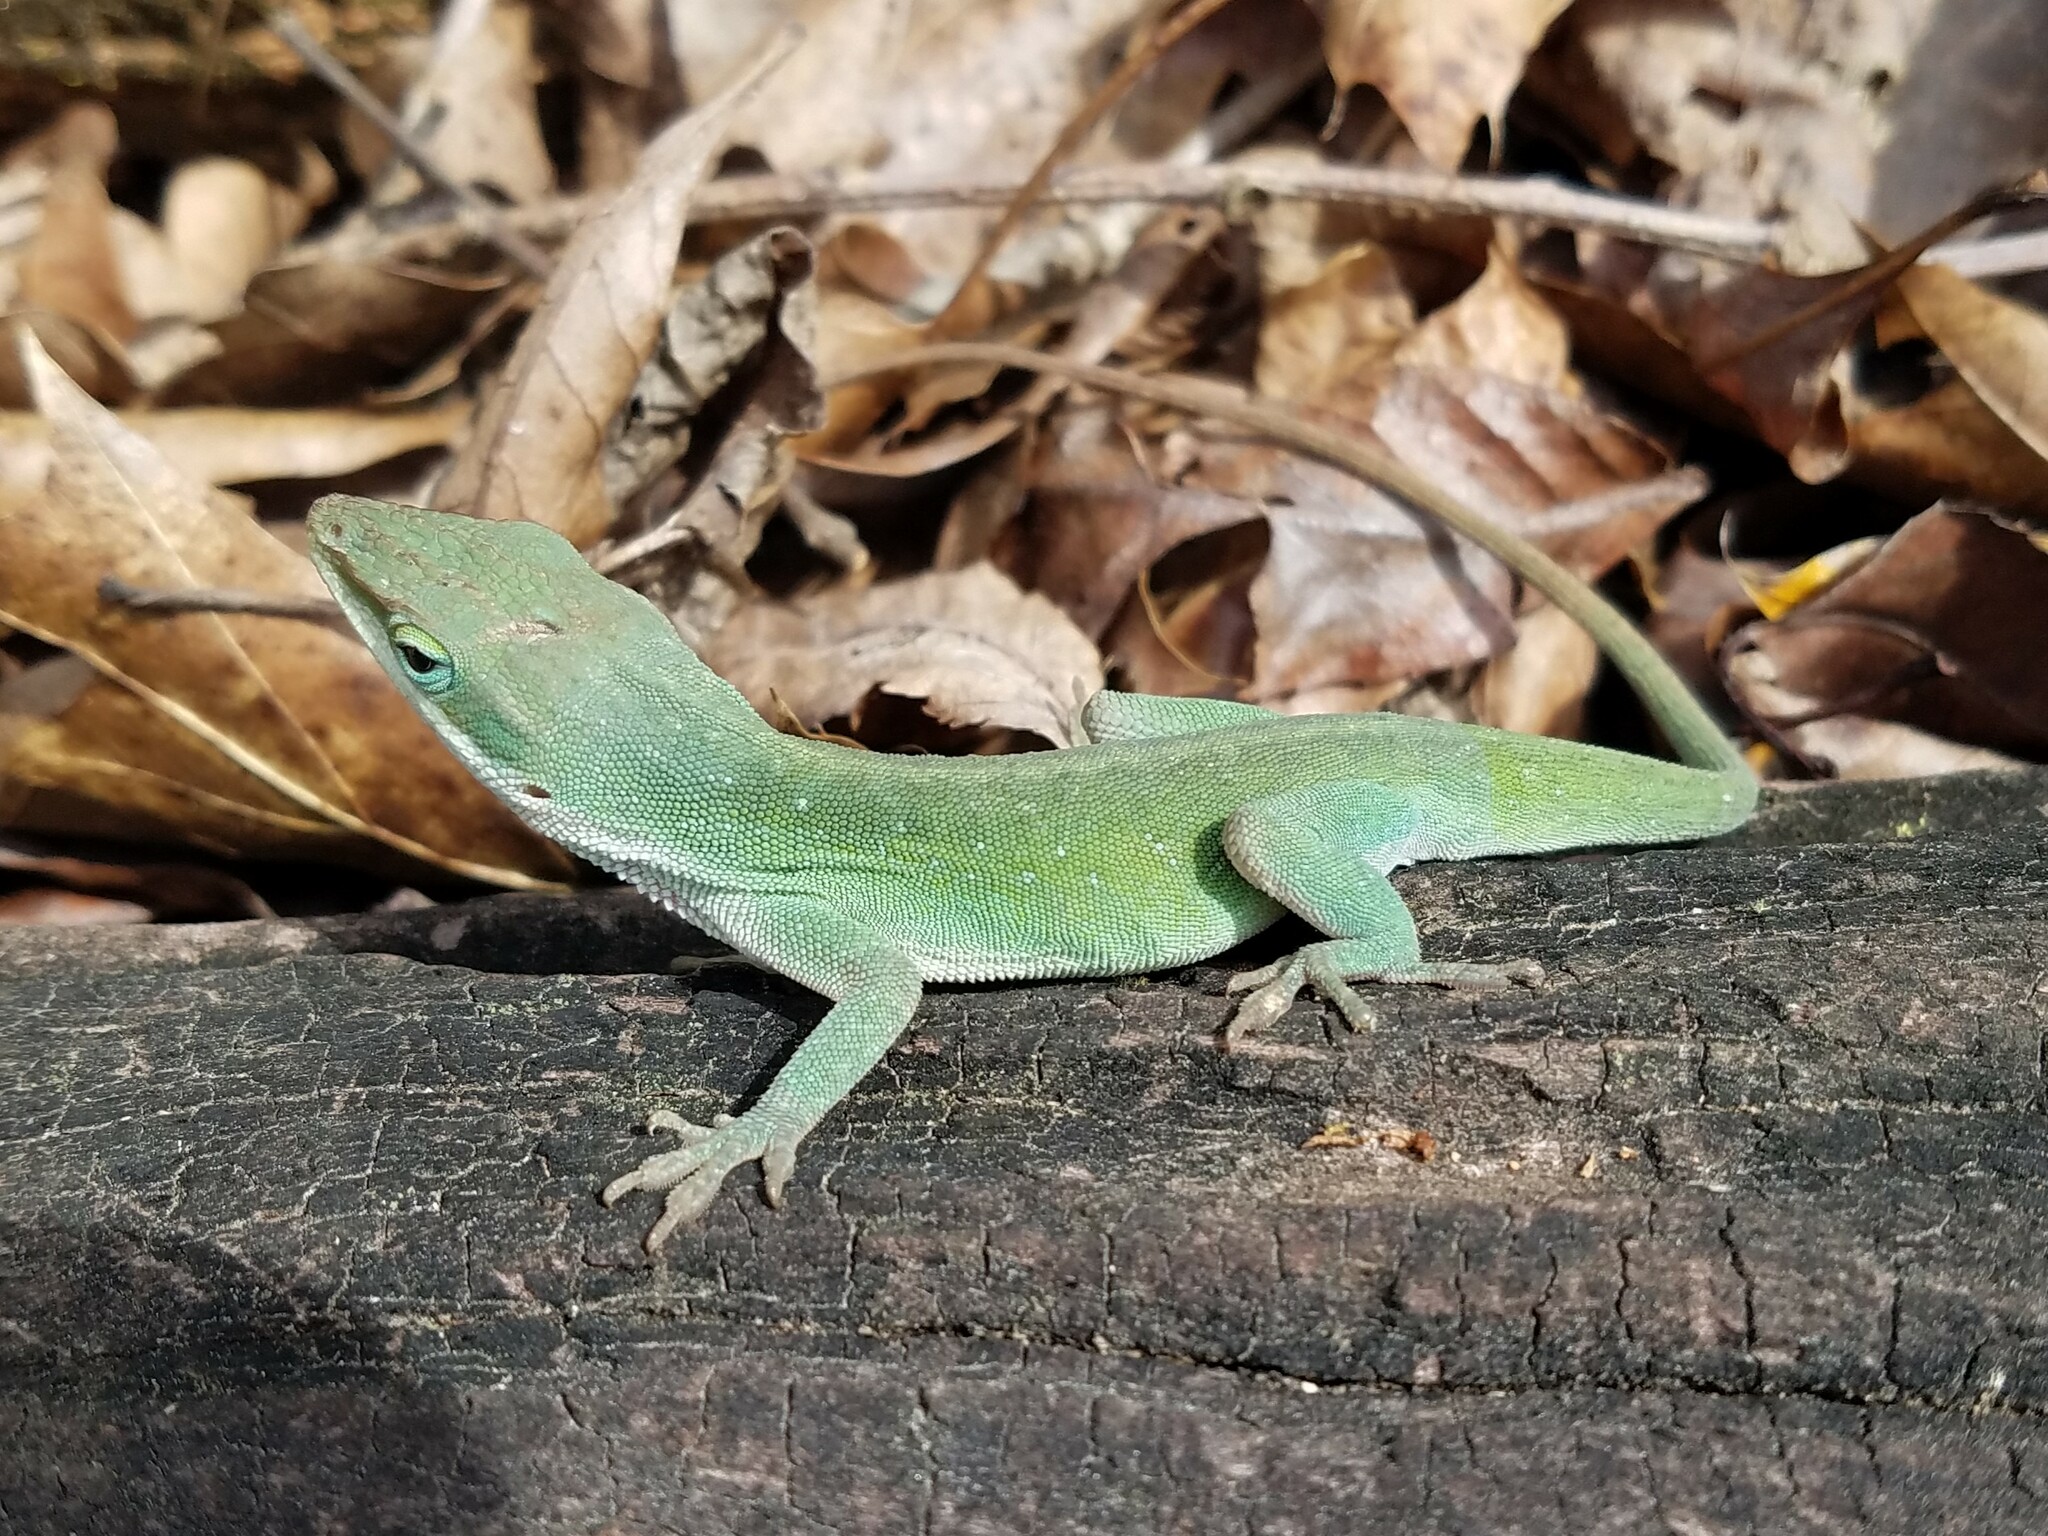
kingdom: Animalia
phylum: Chordata
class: Squamata
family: Dactyloidae
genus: Anolis
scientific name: Anolis carolinensis
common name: Green anole
